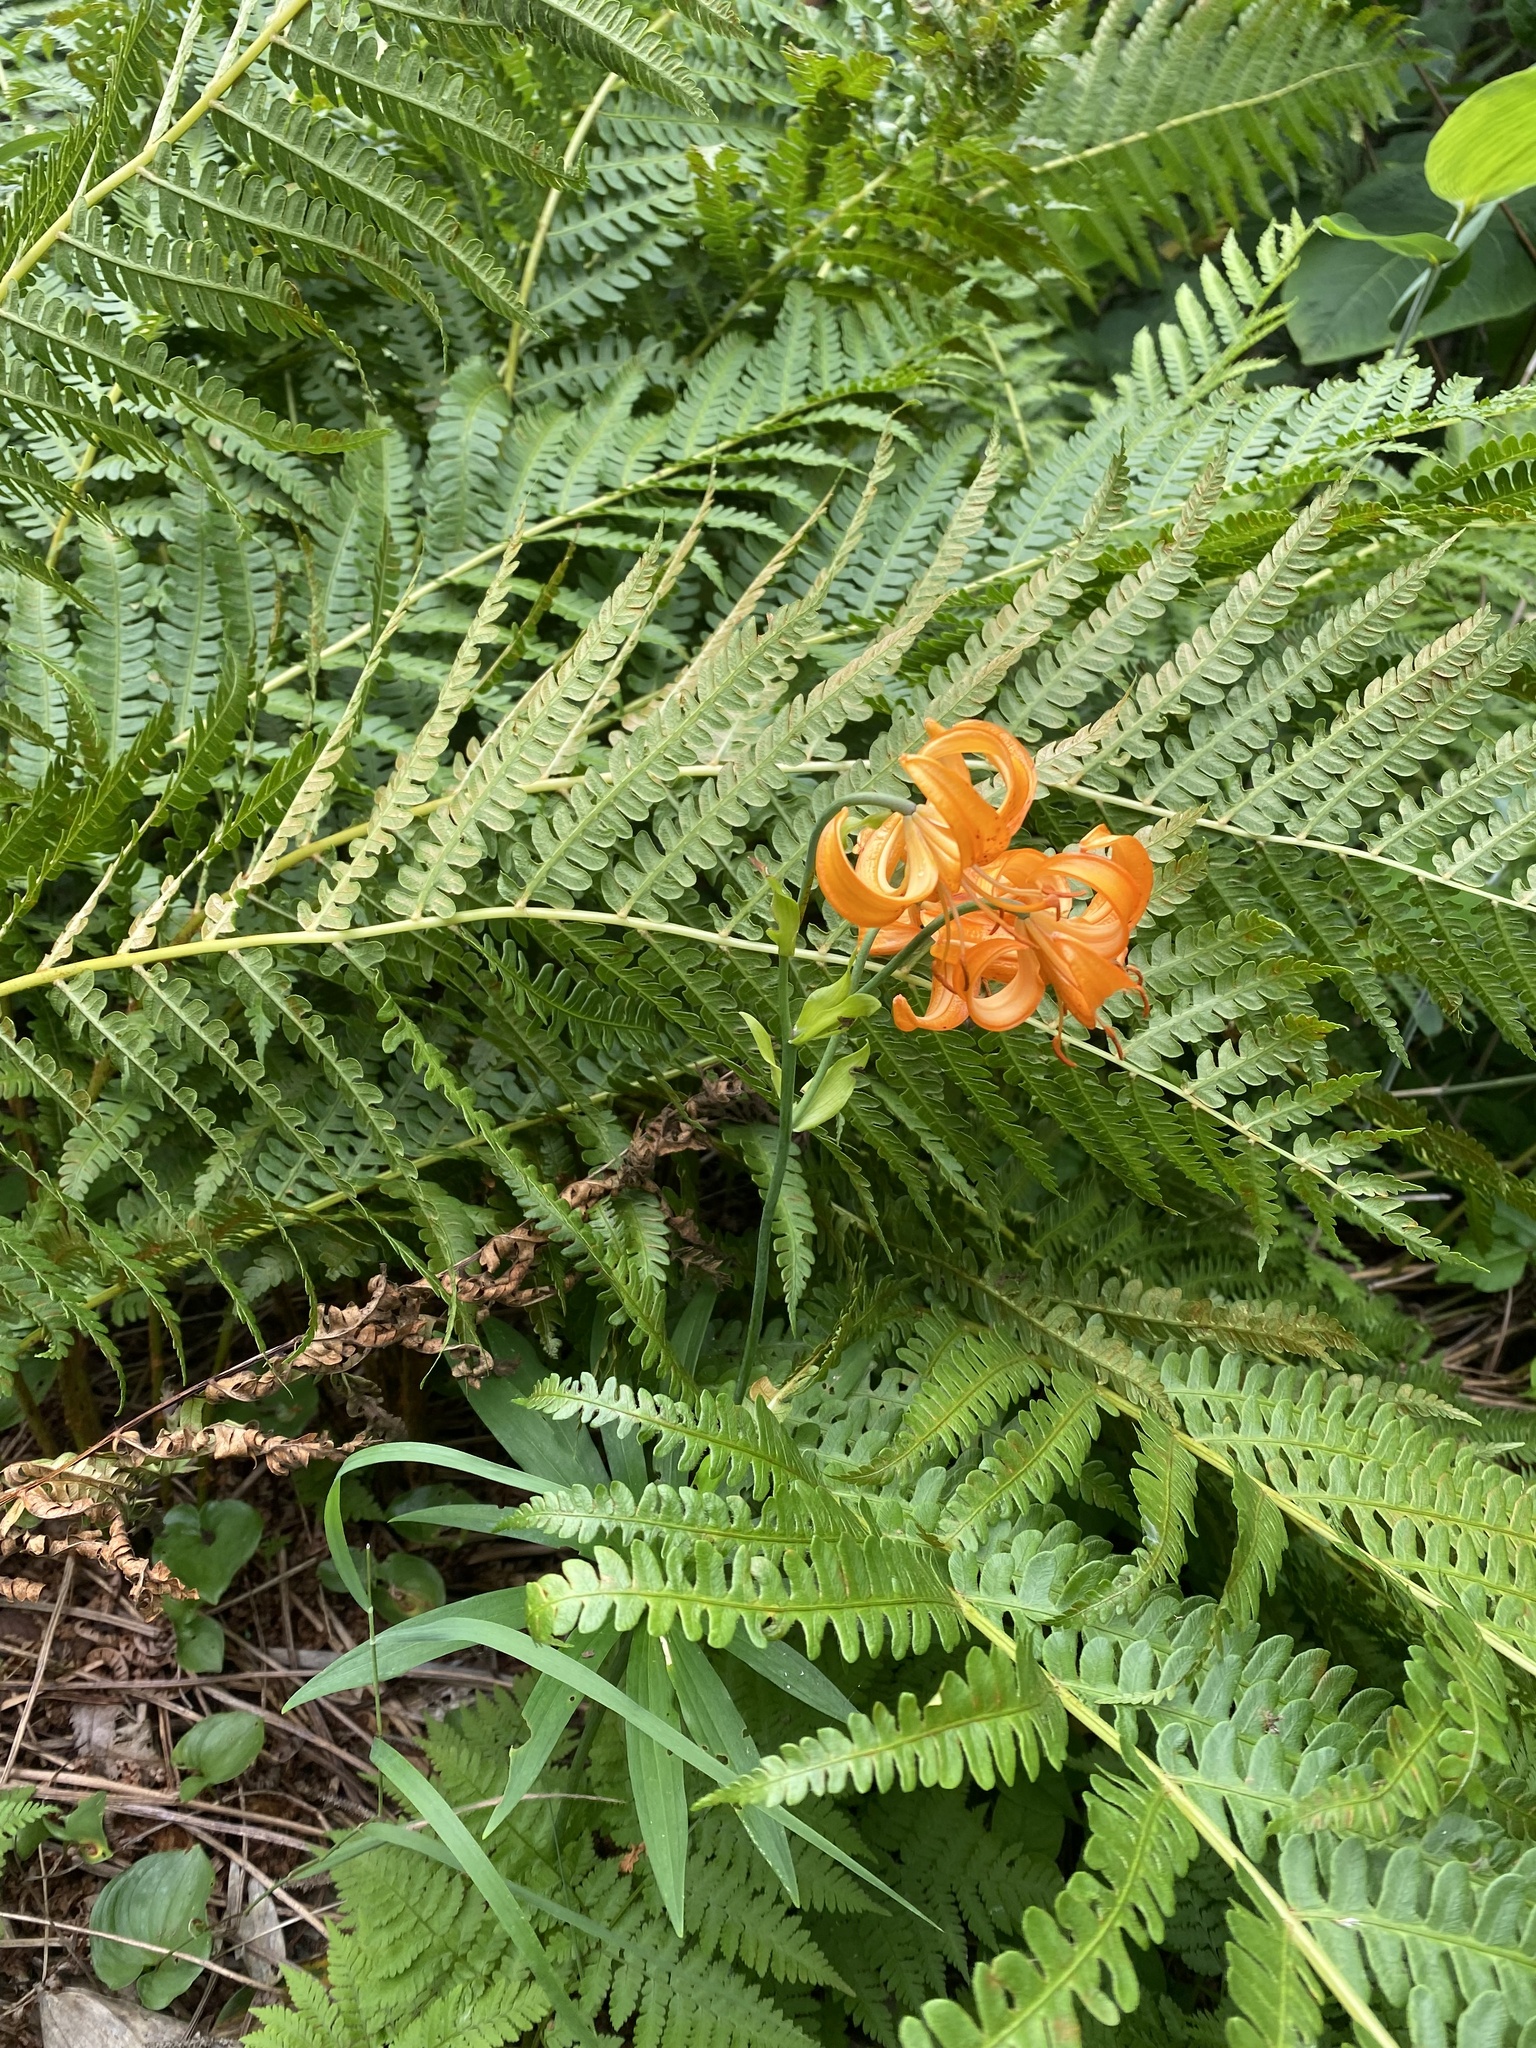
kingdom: Plantae
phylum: Tracheophyta
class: Liliopsida
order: Liliales
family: Liliaceae
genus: Lilium
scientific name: Lilium debile
